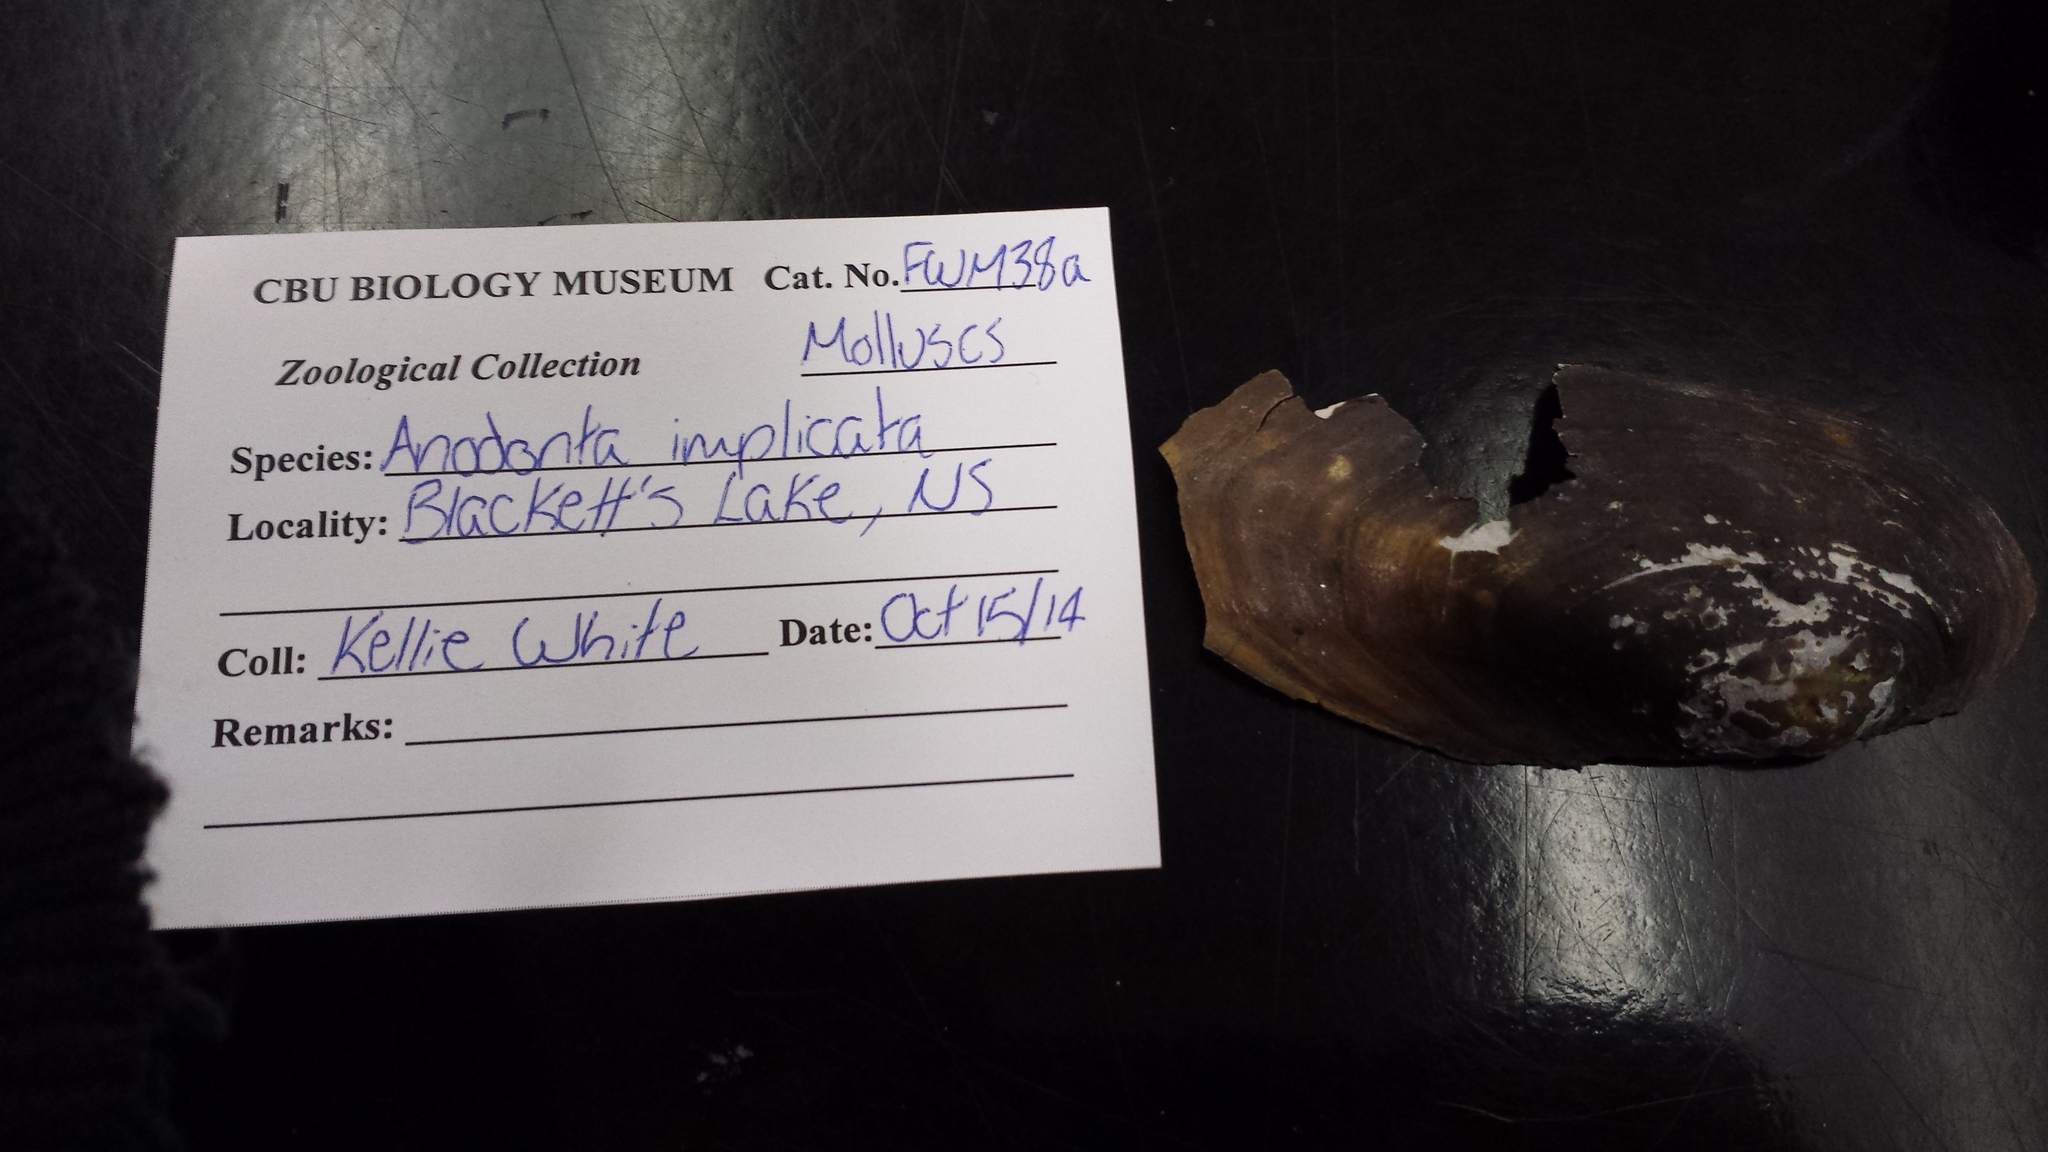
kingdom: Animalia
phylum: Mollusca
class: Bivalvia
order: Unionida
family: Unionidae
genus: Utterbackiana
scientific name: Utterbackiana implicata
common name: Alewife floater
